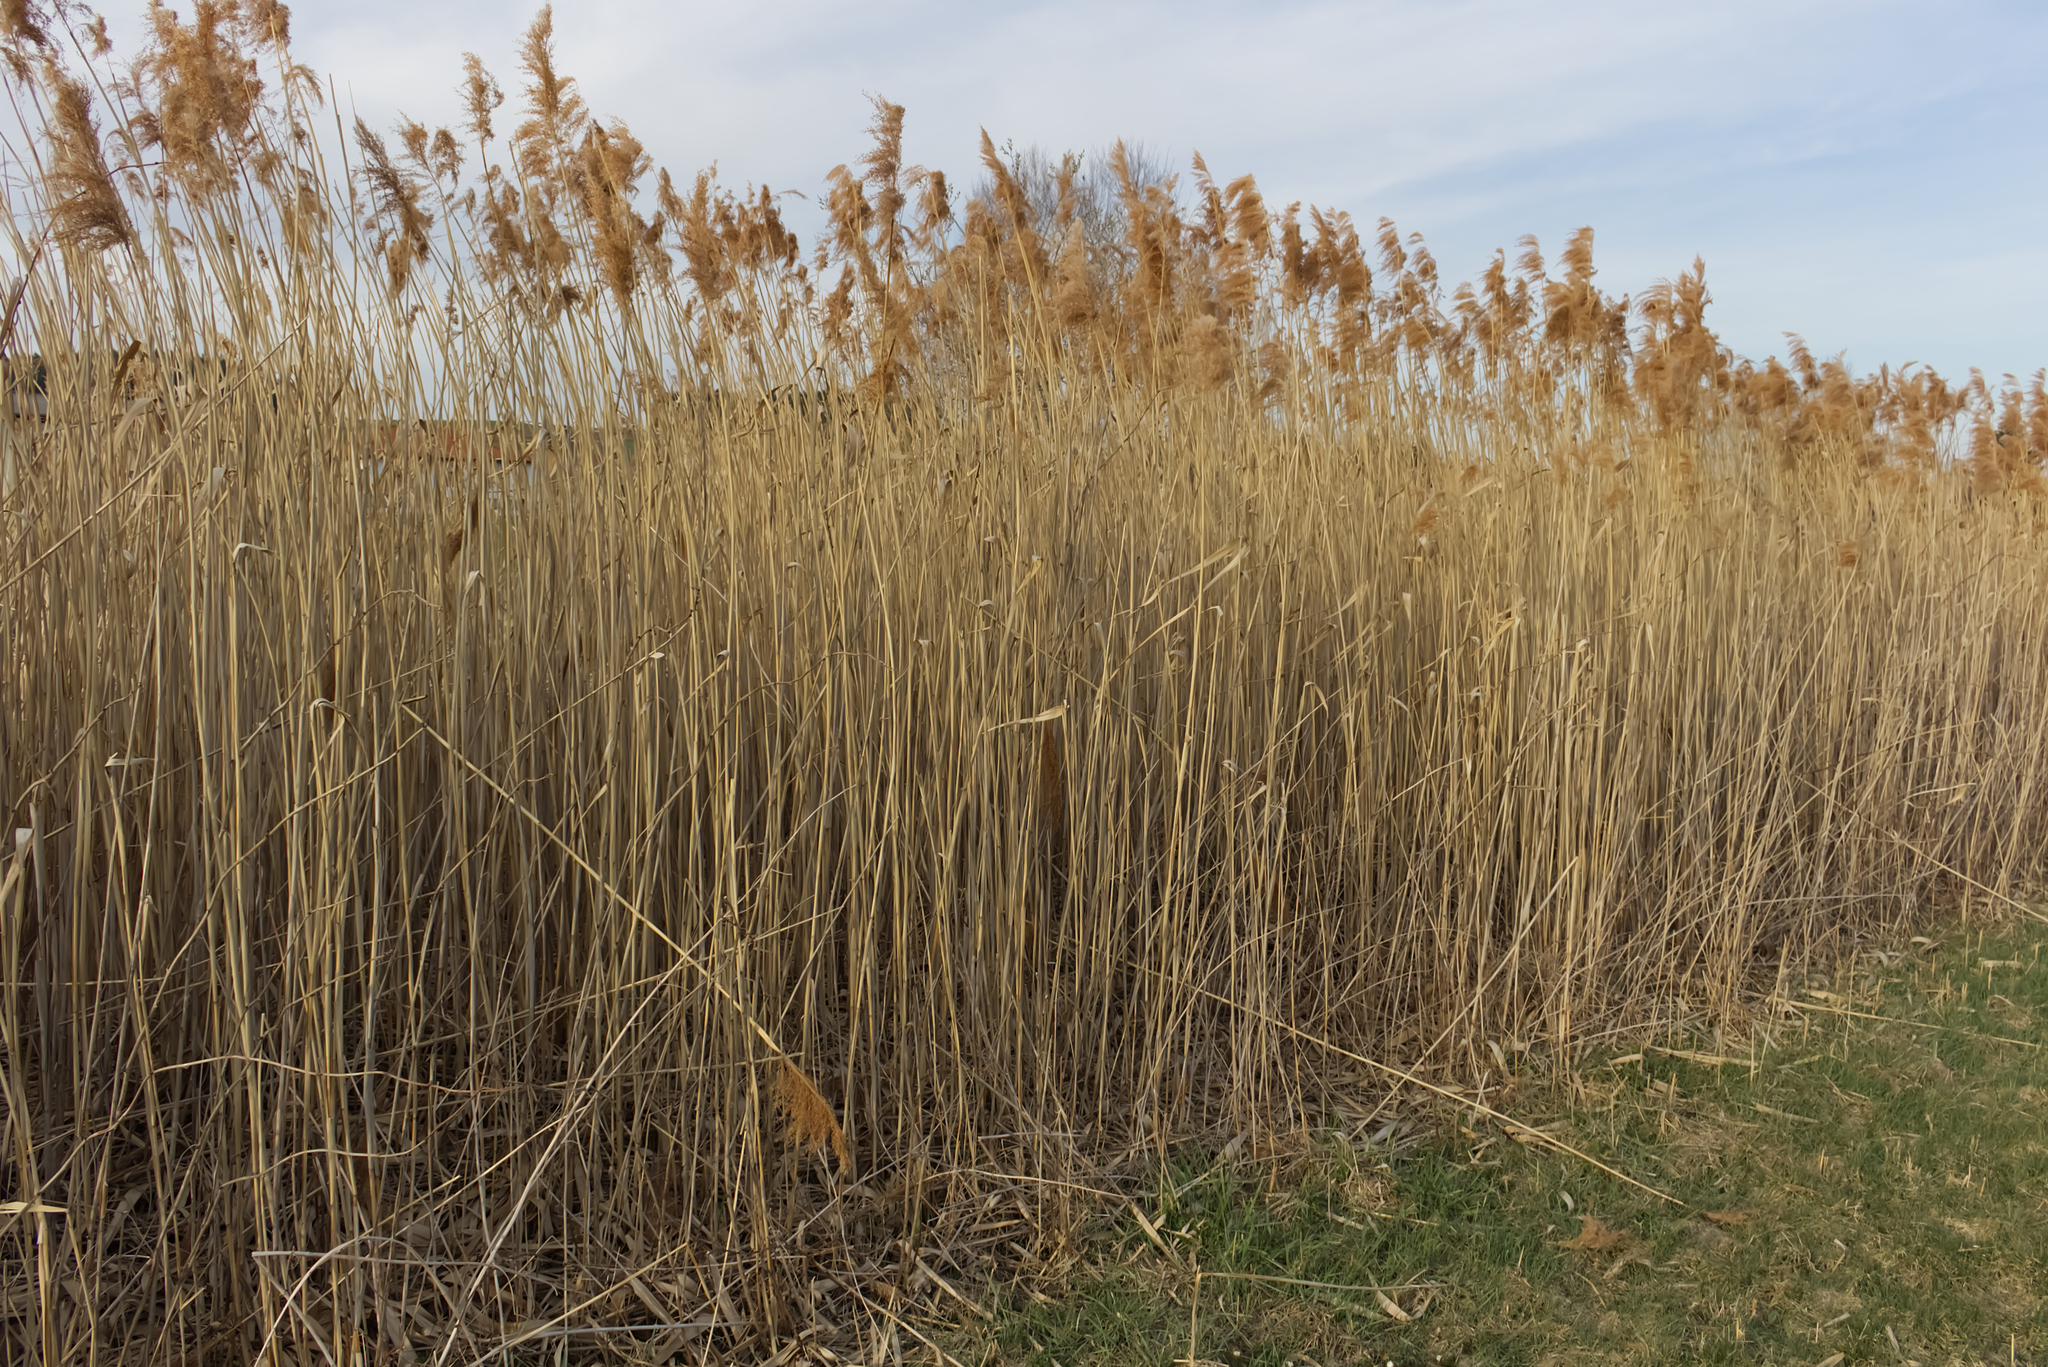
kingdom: Plantae
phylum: Tracheophyta
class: Liliopsida
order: Poales
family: Poaceae
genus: Phragmites
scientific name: Phragmites australis
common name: Common reed
